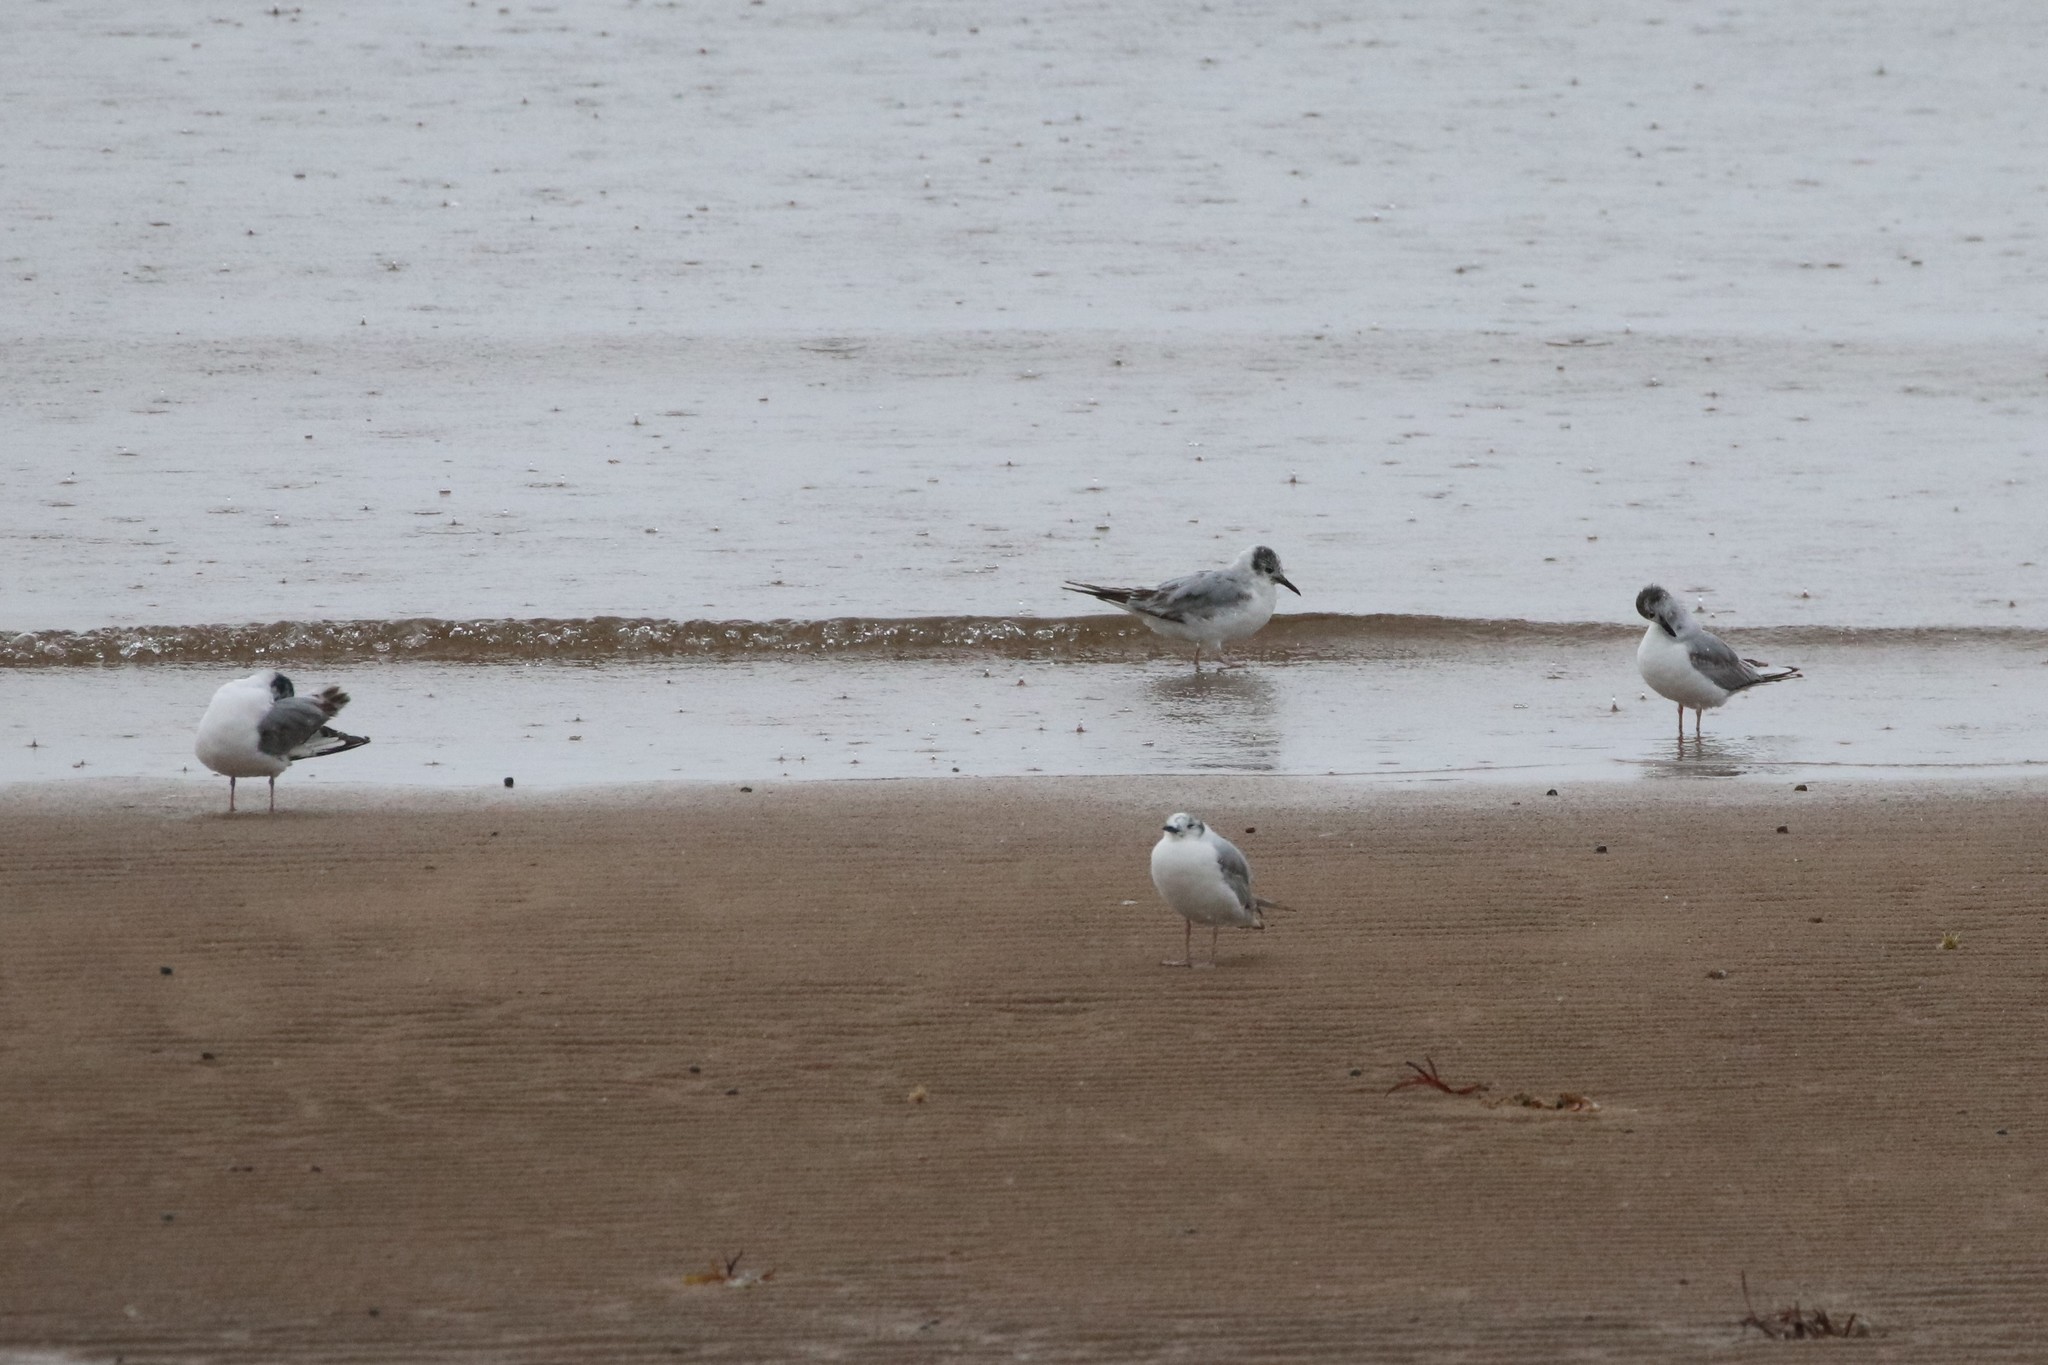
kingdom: Animalia
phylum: Chordata
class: Aves
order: Charadriiformes
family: Laridae
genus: Chroicocephalus
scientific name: Chroicocephalus philadelphia
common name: Bonaparte's gull
